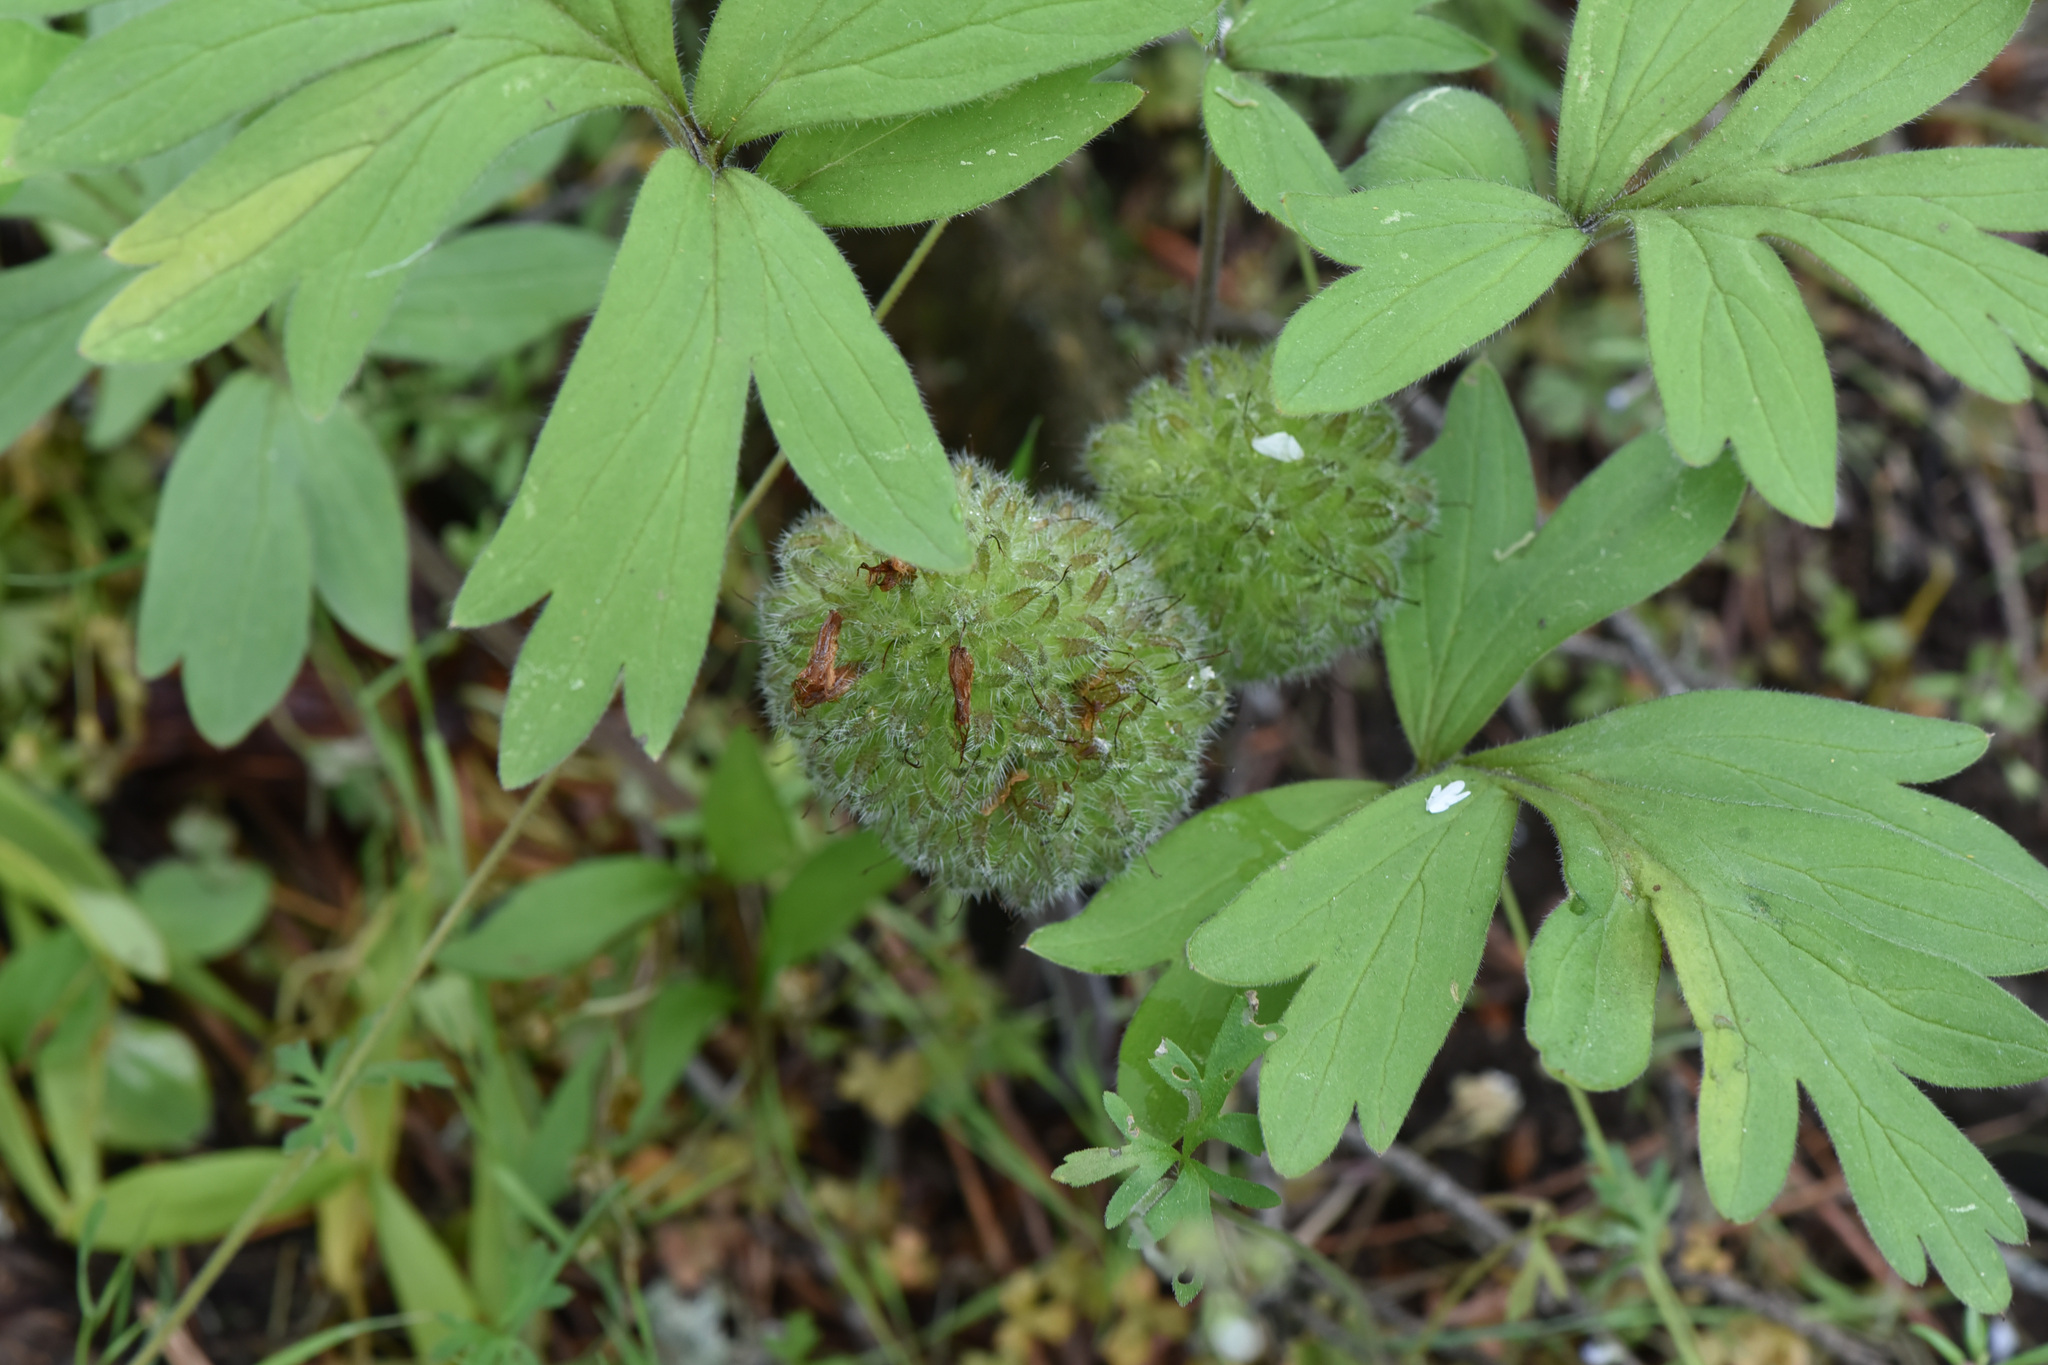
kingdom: Plantae
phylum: Tracheophyta
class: Magnoliopsida
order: Boraginales
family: Hydrophyllaceae
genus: Hydrophyllum
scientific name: Hydrophyllum capitatum
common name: Woollen-breeches
